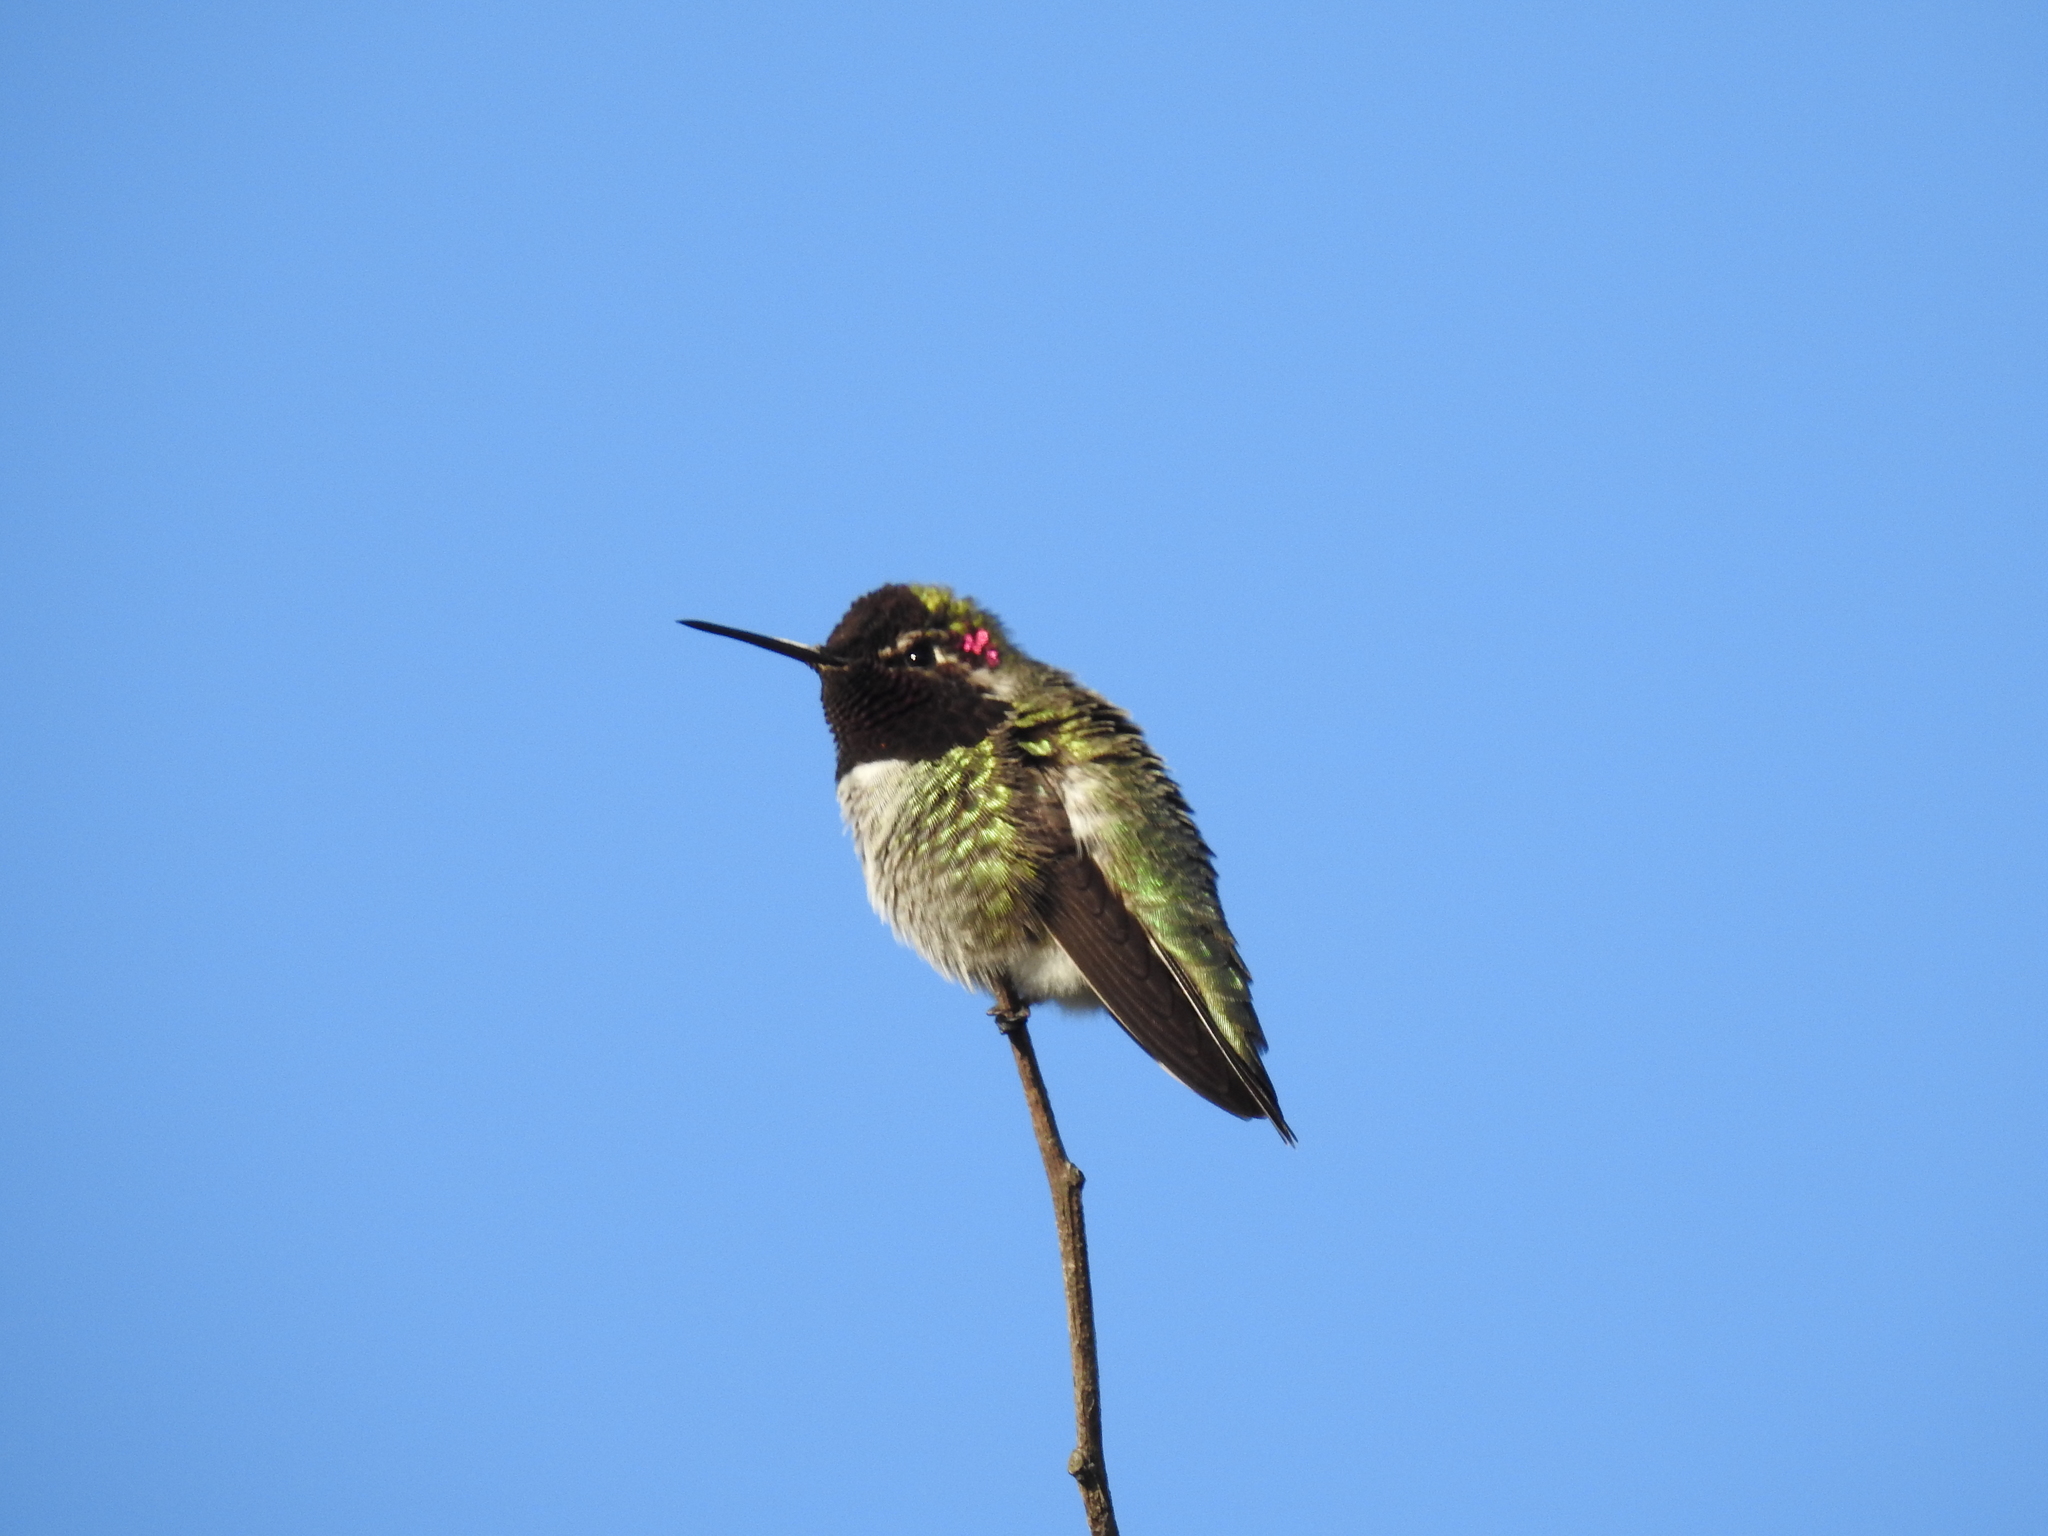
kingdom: Animalia
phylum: Chordata
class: Aves
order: Apodiformes
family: Trochilidae
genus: Calypte
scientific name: Calypte anna
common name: Anna's hummingbird
